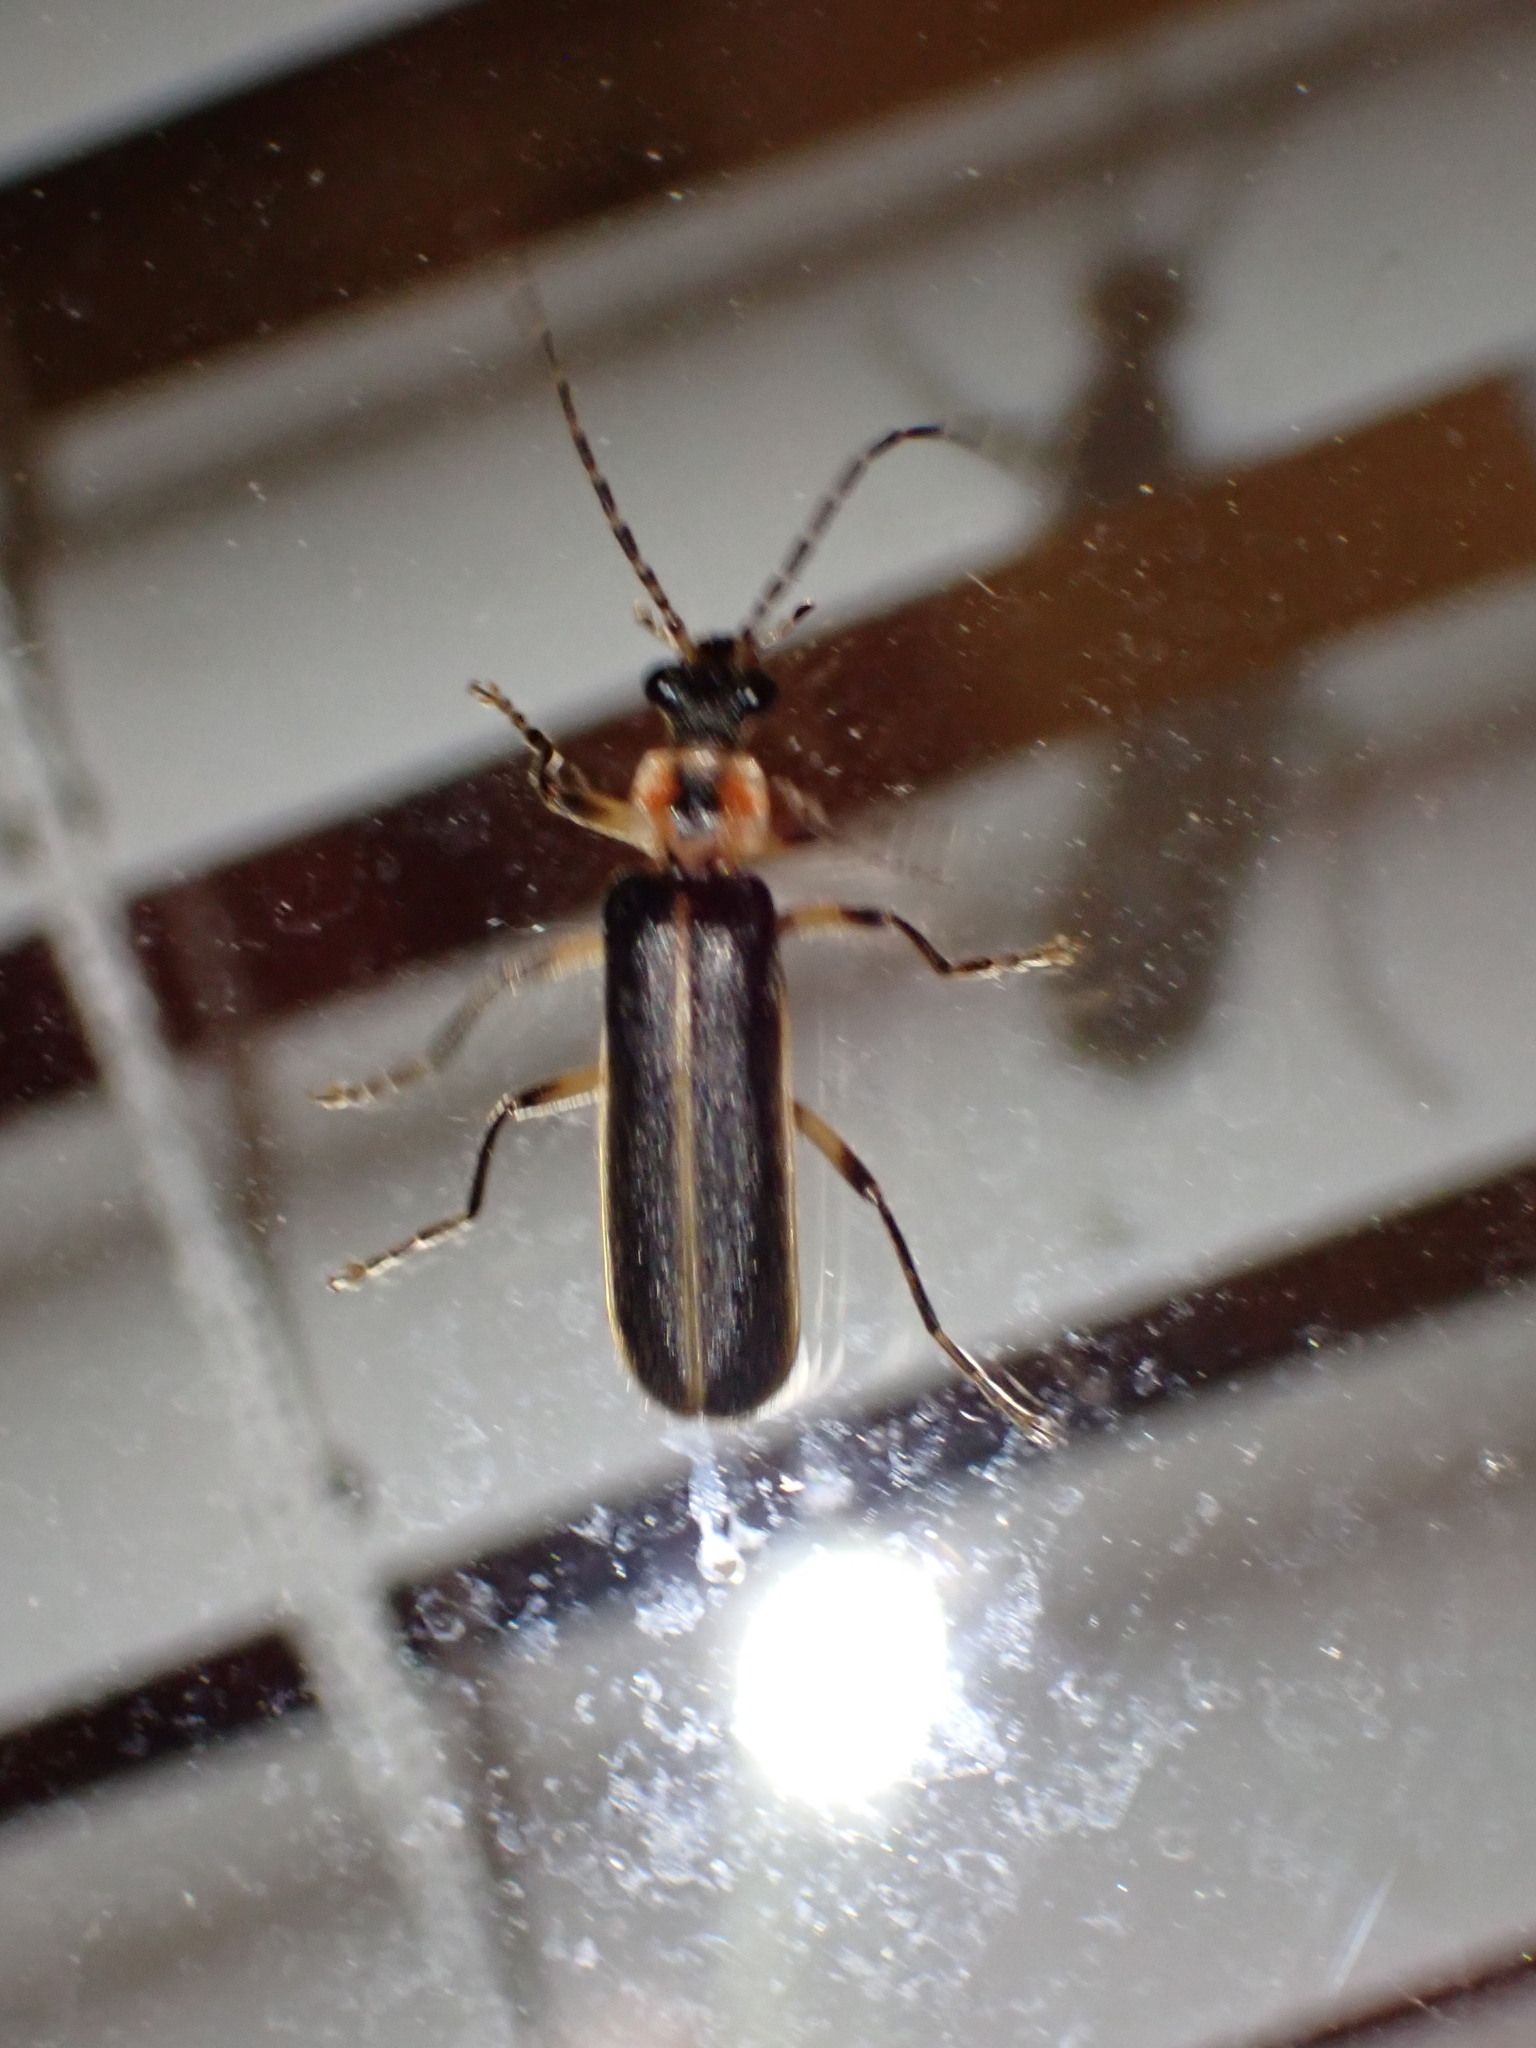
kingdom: Animalia
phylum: Arthropoda
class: Insecta
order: Coleoptera
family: Cantharidae
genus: Podabrus
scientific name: Podabrus basilaris
